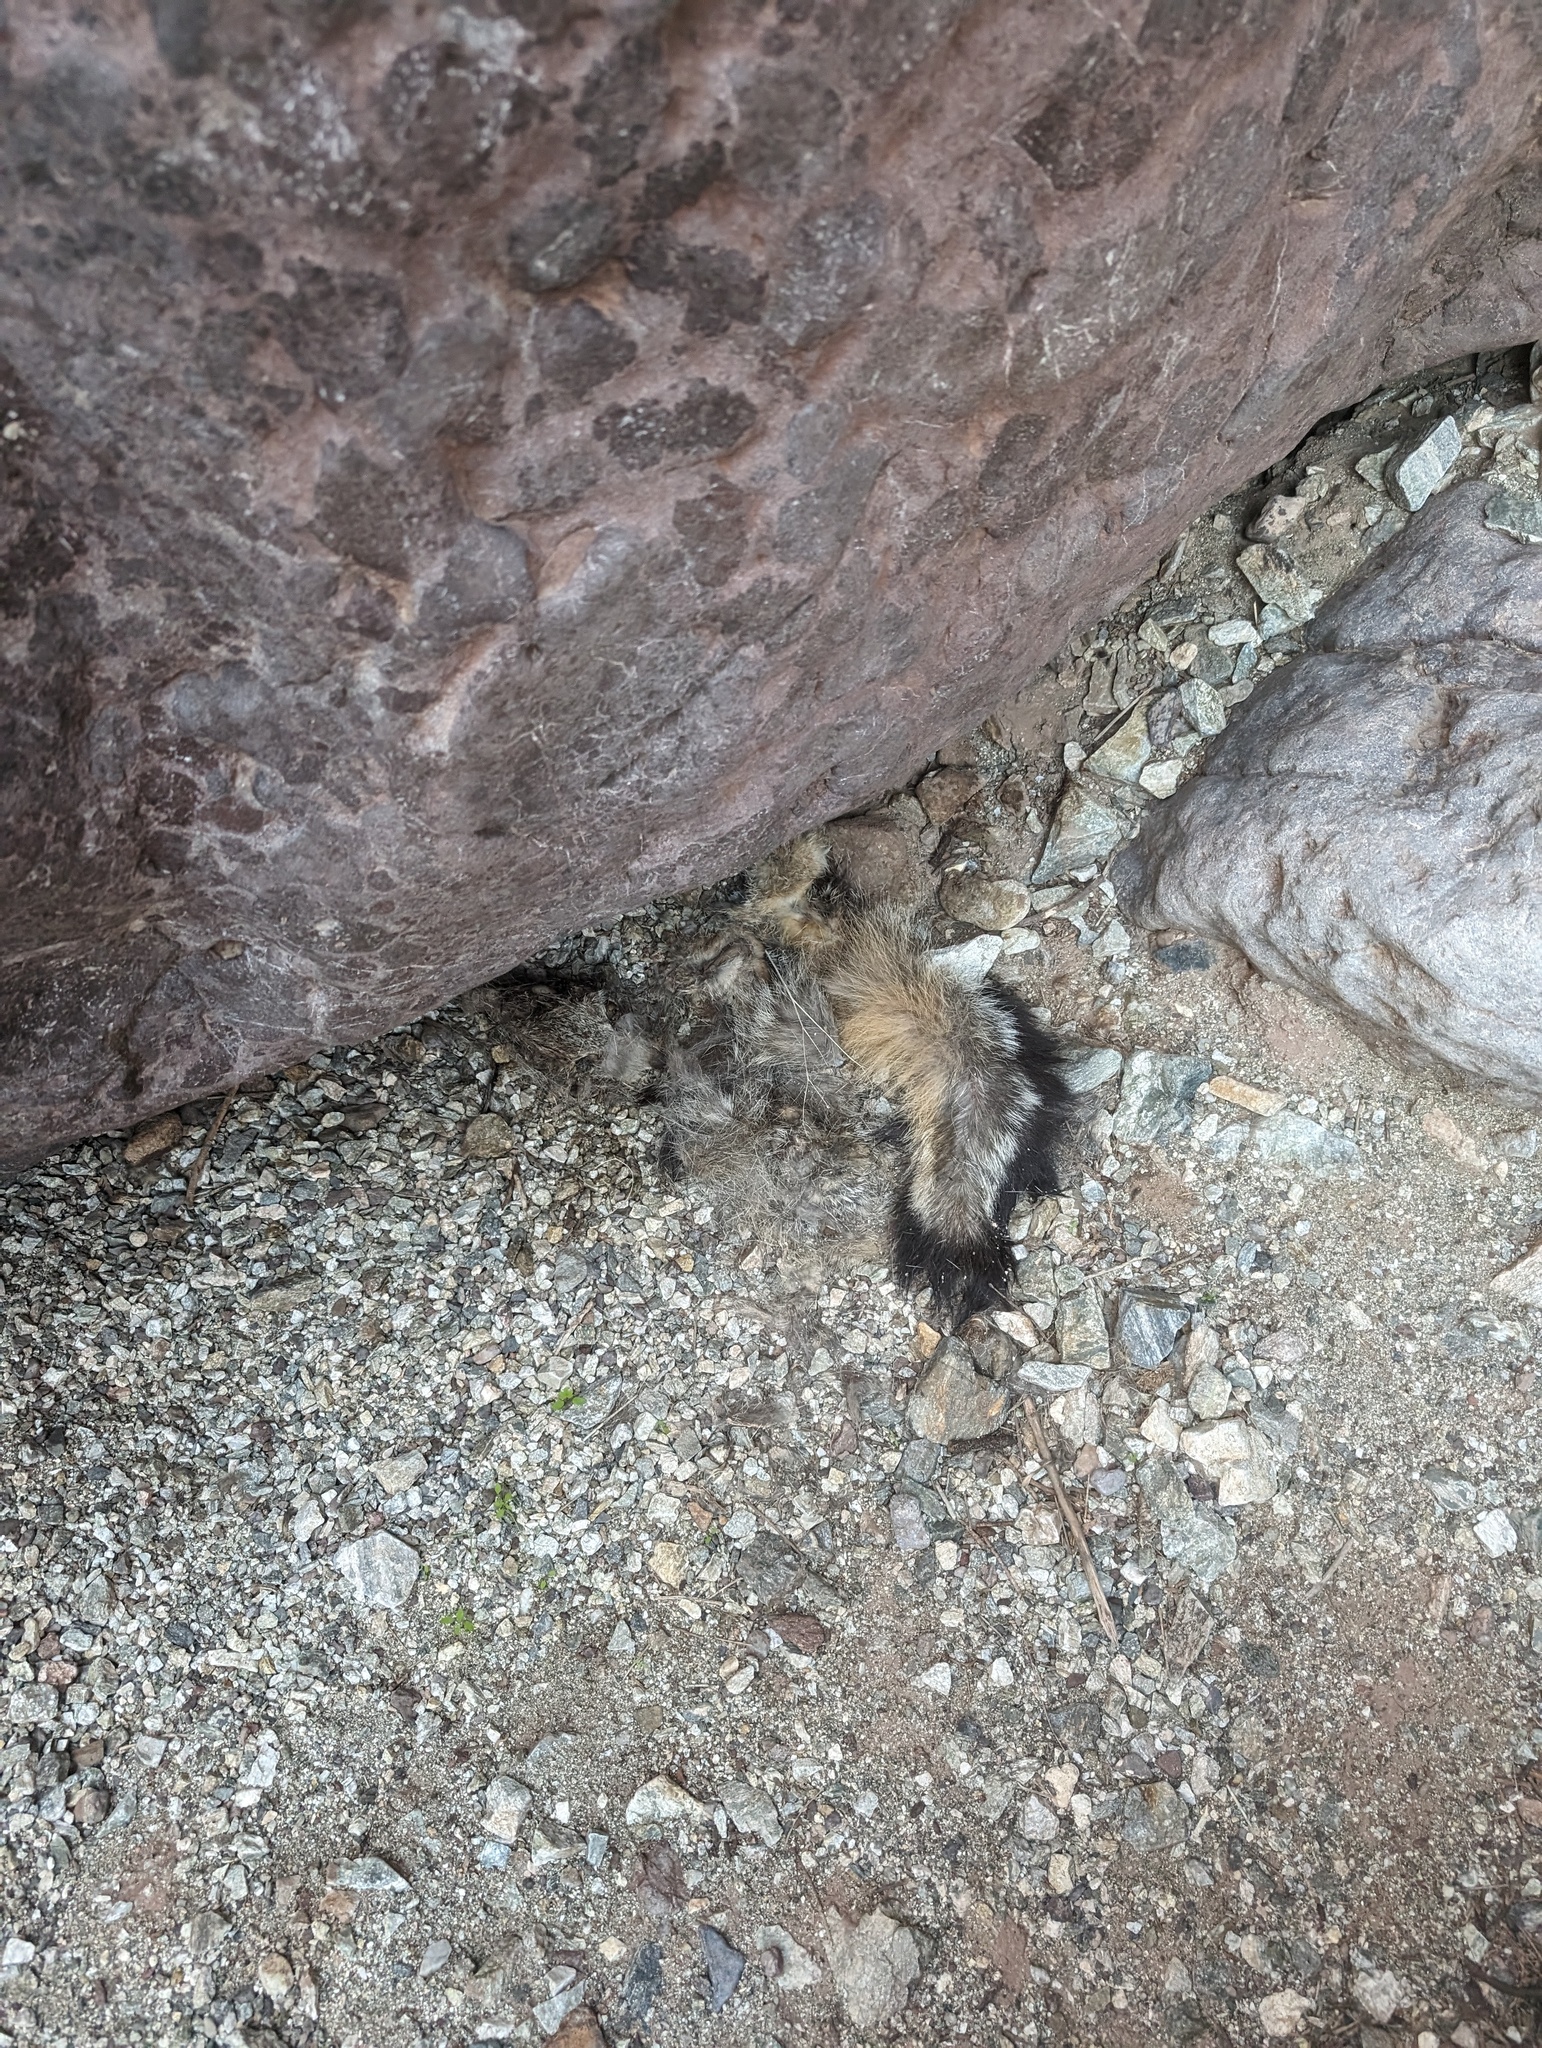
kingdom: Animalia
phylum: Chordata
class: Mammalia
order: Carnivora
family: Canidae
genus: Urocyon
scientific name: Urocyon cinereoargenteus
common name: Gray fox
